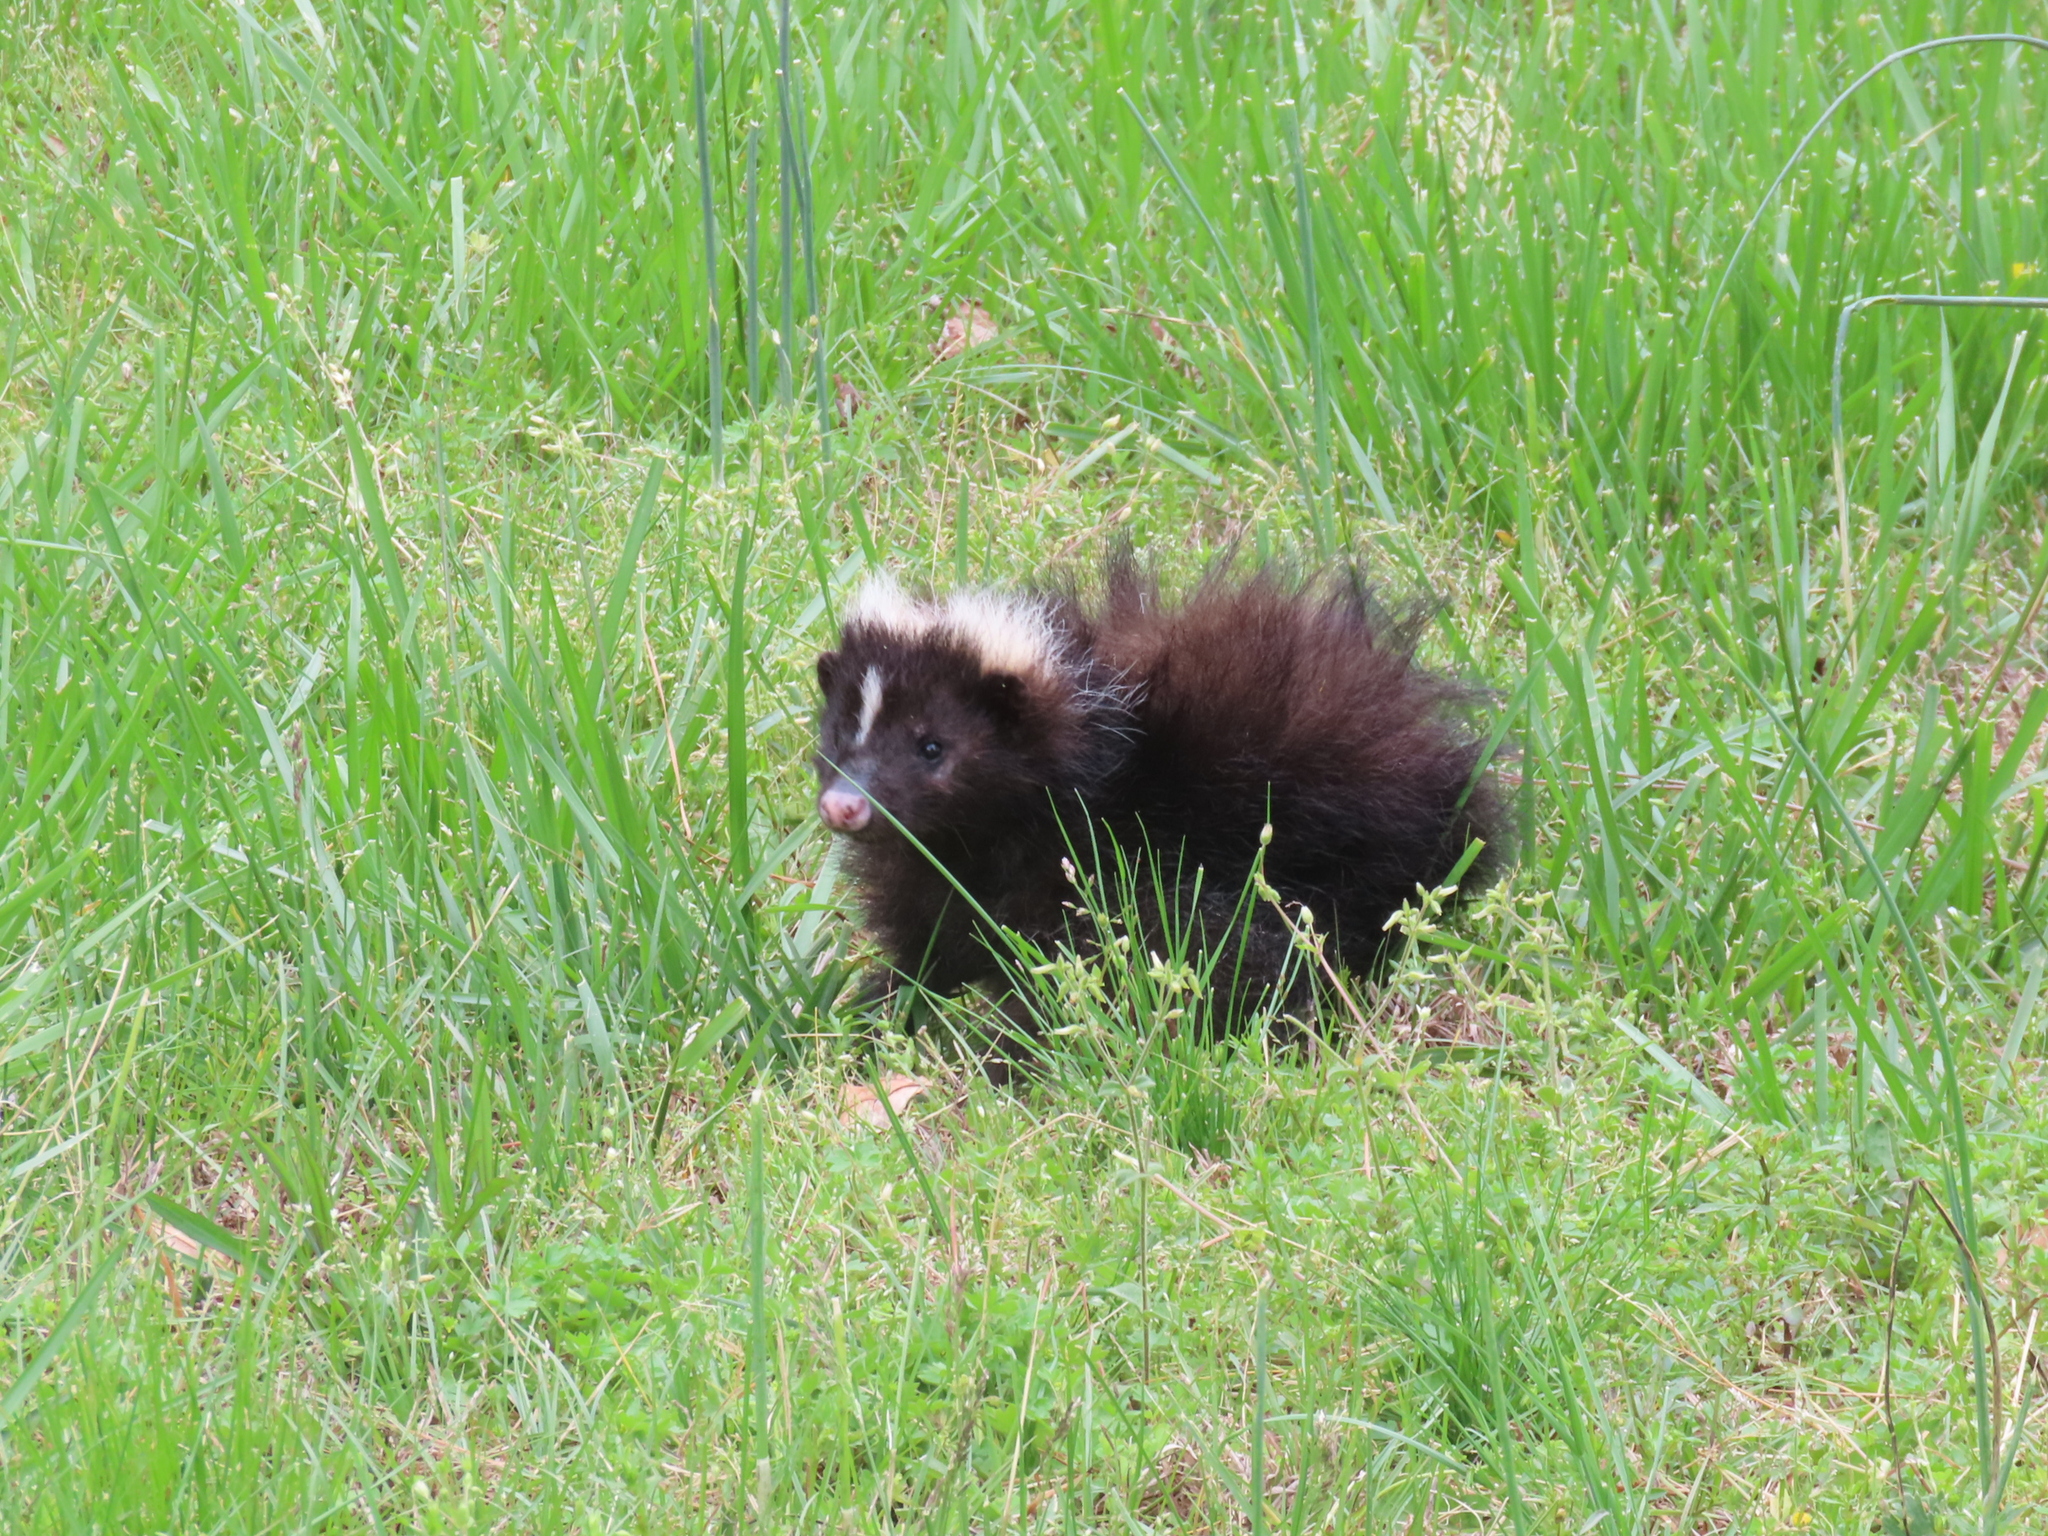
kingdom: Animalia
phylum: Chordata
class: Mammalia
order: Carnivora
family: Mephitidae
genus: Mephitis
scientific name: Mephitis mephitis
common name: Striped skunk
